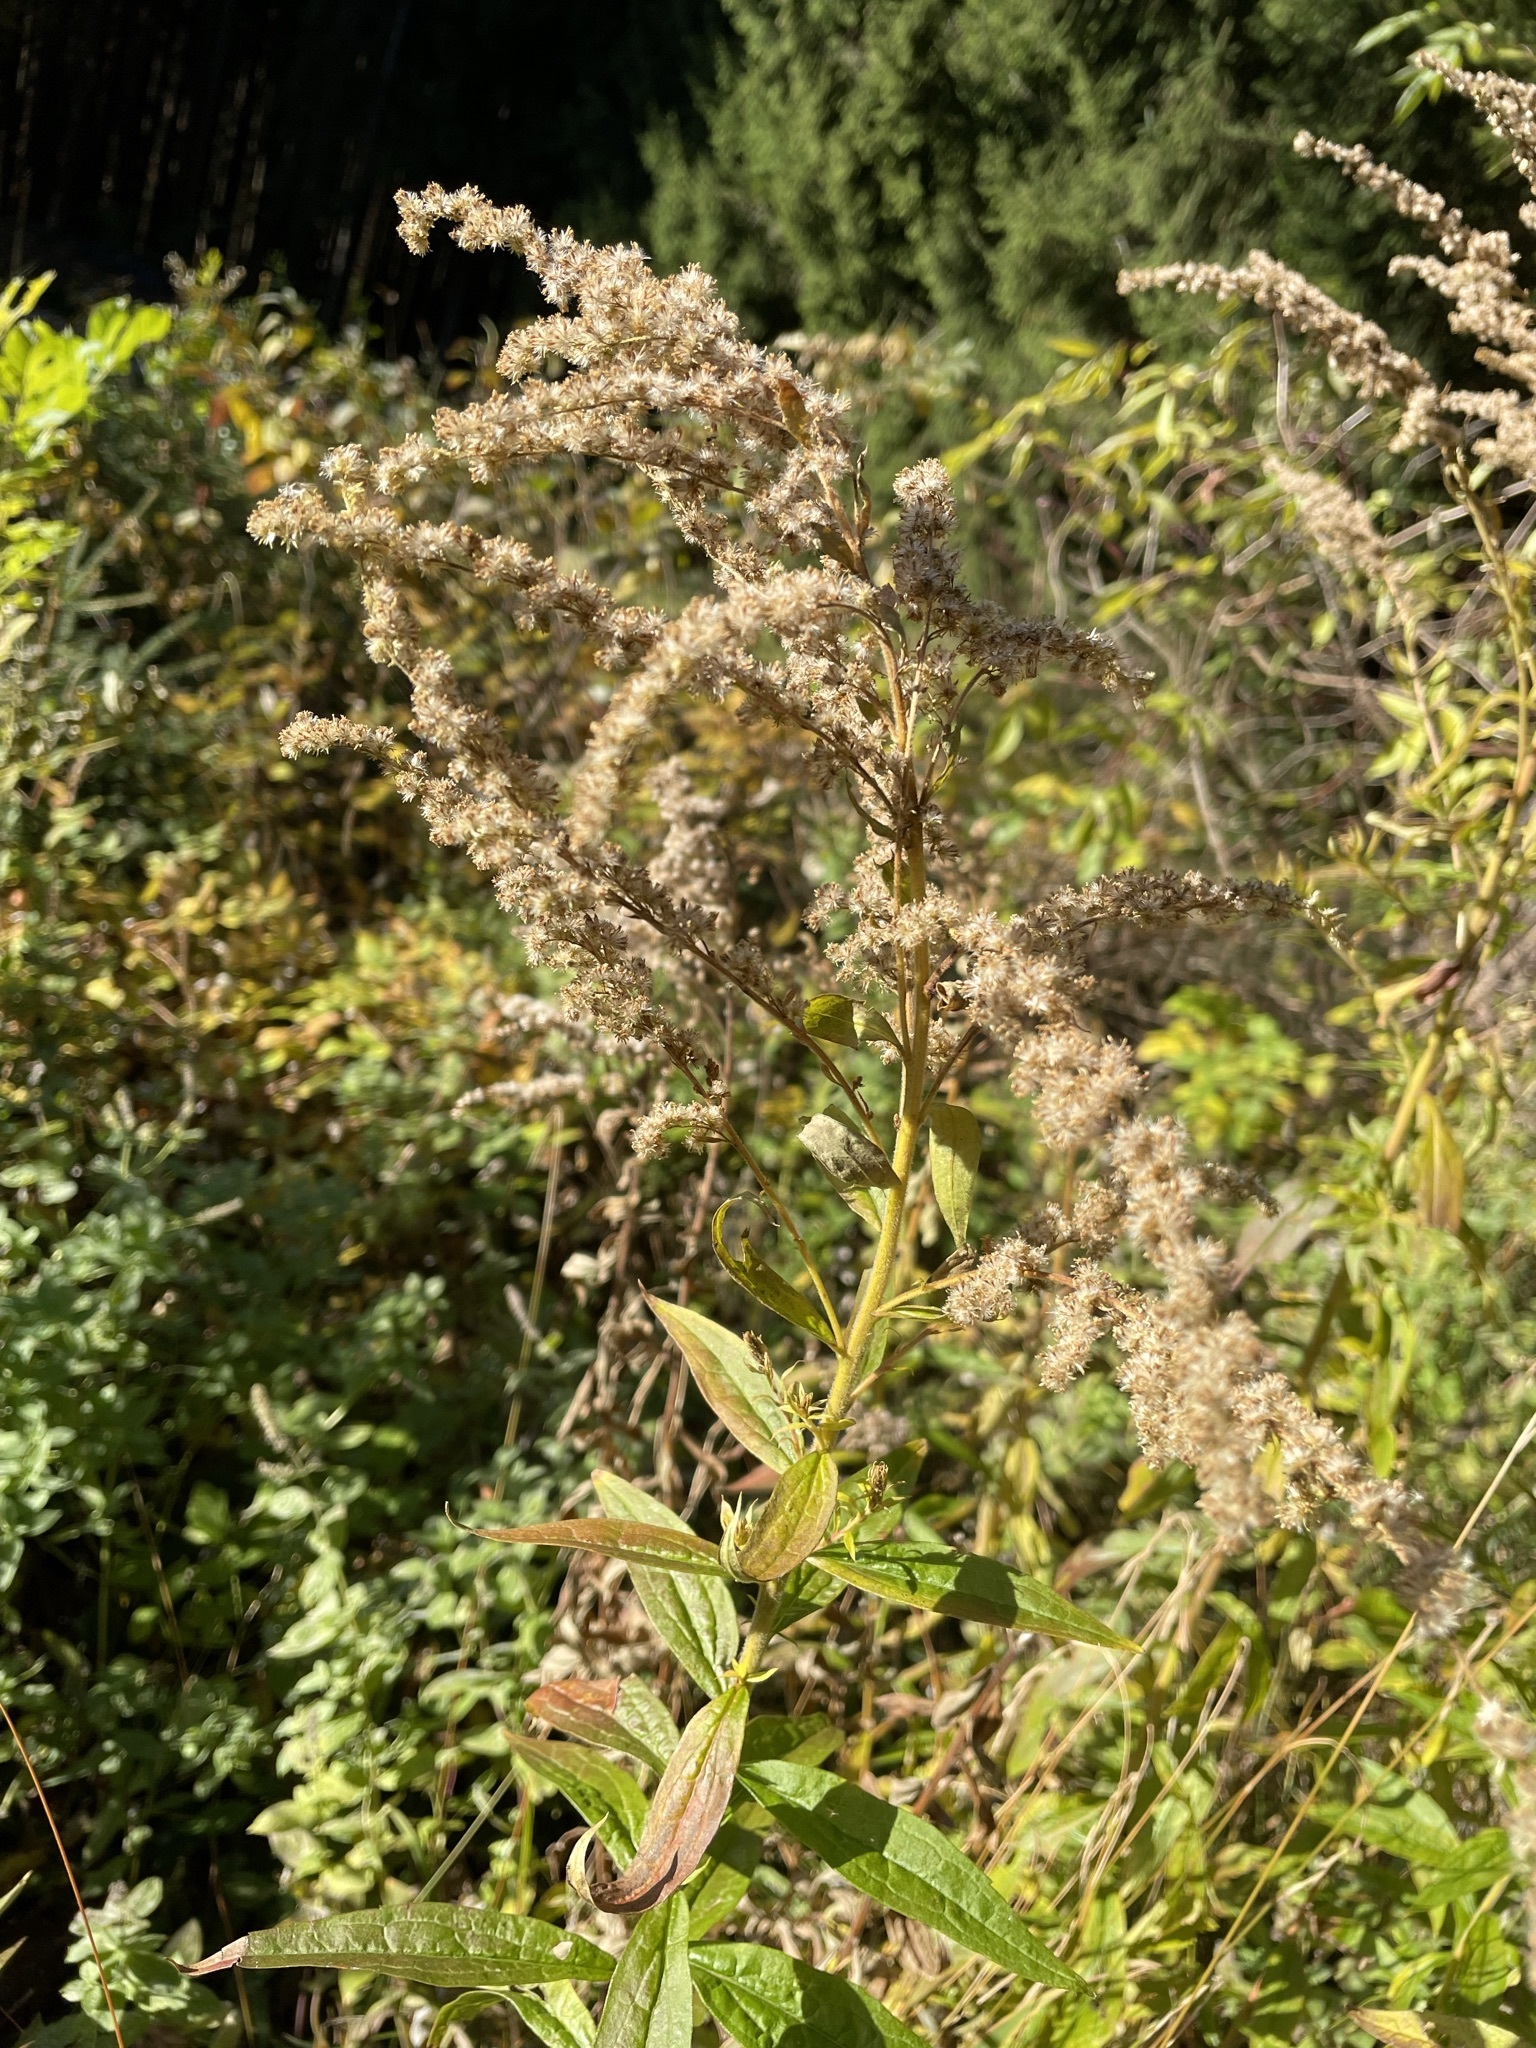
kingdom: Plantae
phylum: Tracheophyta
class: Magnoliopsida
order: Asterales
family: Asteraceae
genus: Solidago
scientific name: Solidago canadensis
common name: Canada goldenrod
